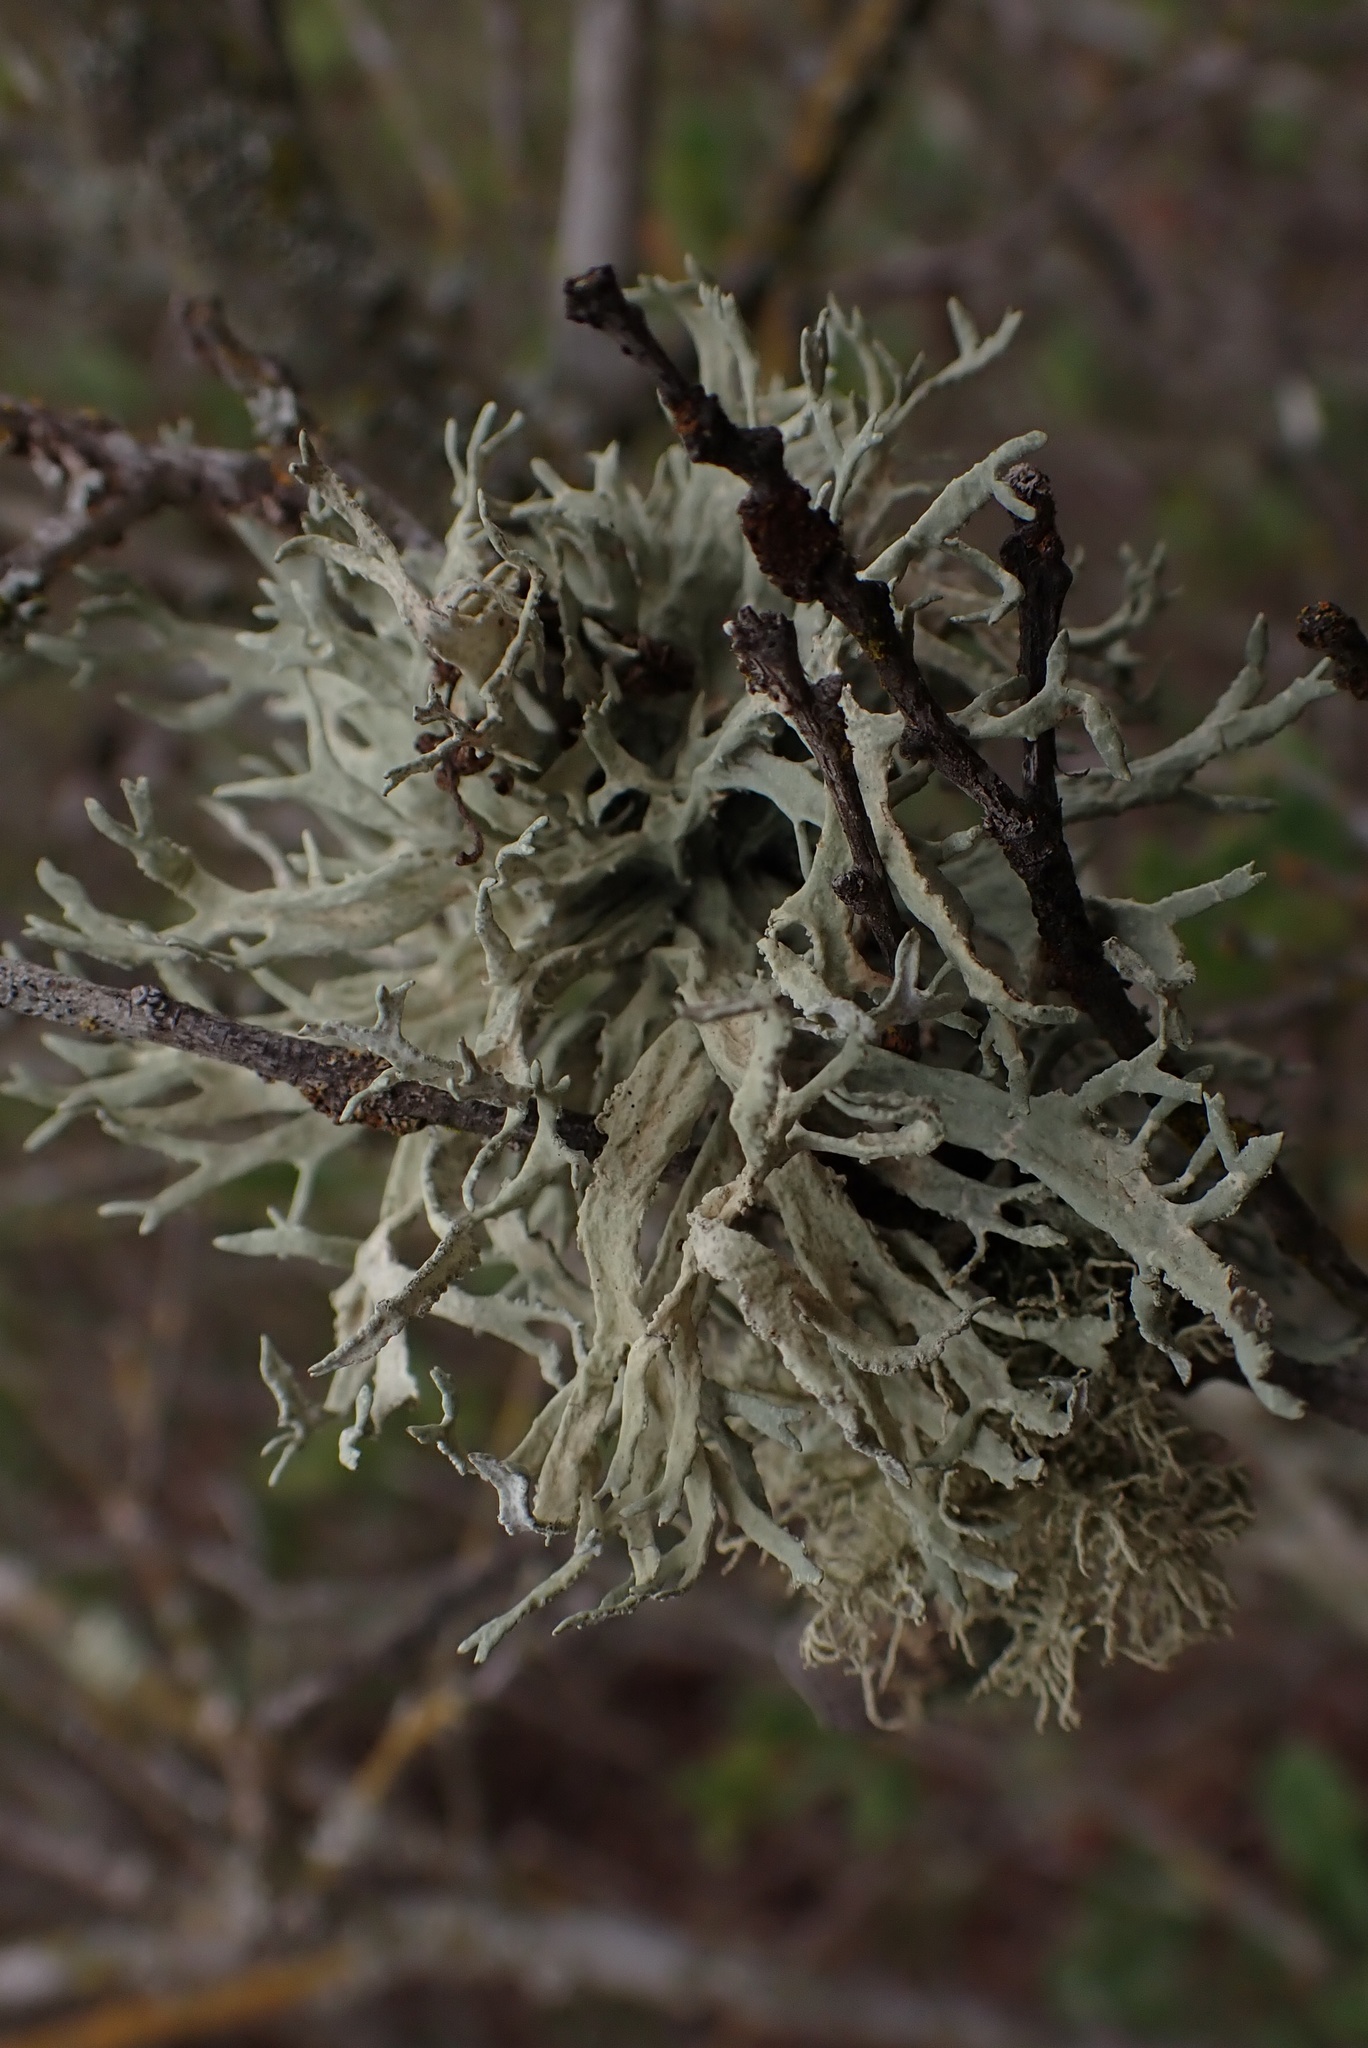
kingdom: Fungi
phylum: Ascomycota
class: Lecanoromycetes
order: Lecanorales
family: Parmeliaceae
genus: Evernia
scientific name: Evernia prunastri
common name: Oak moss
